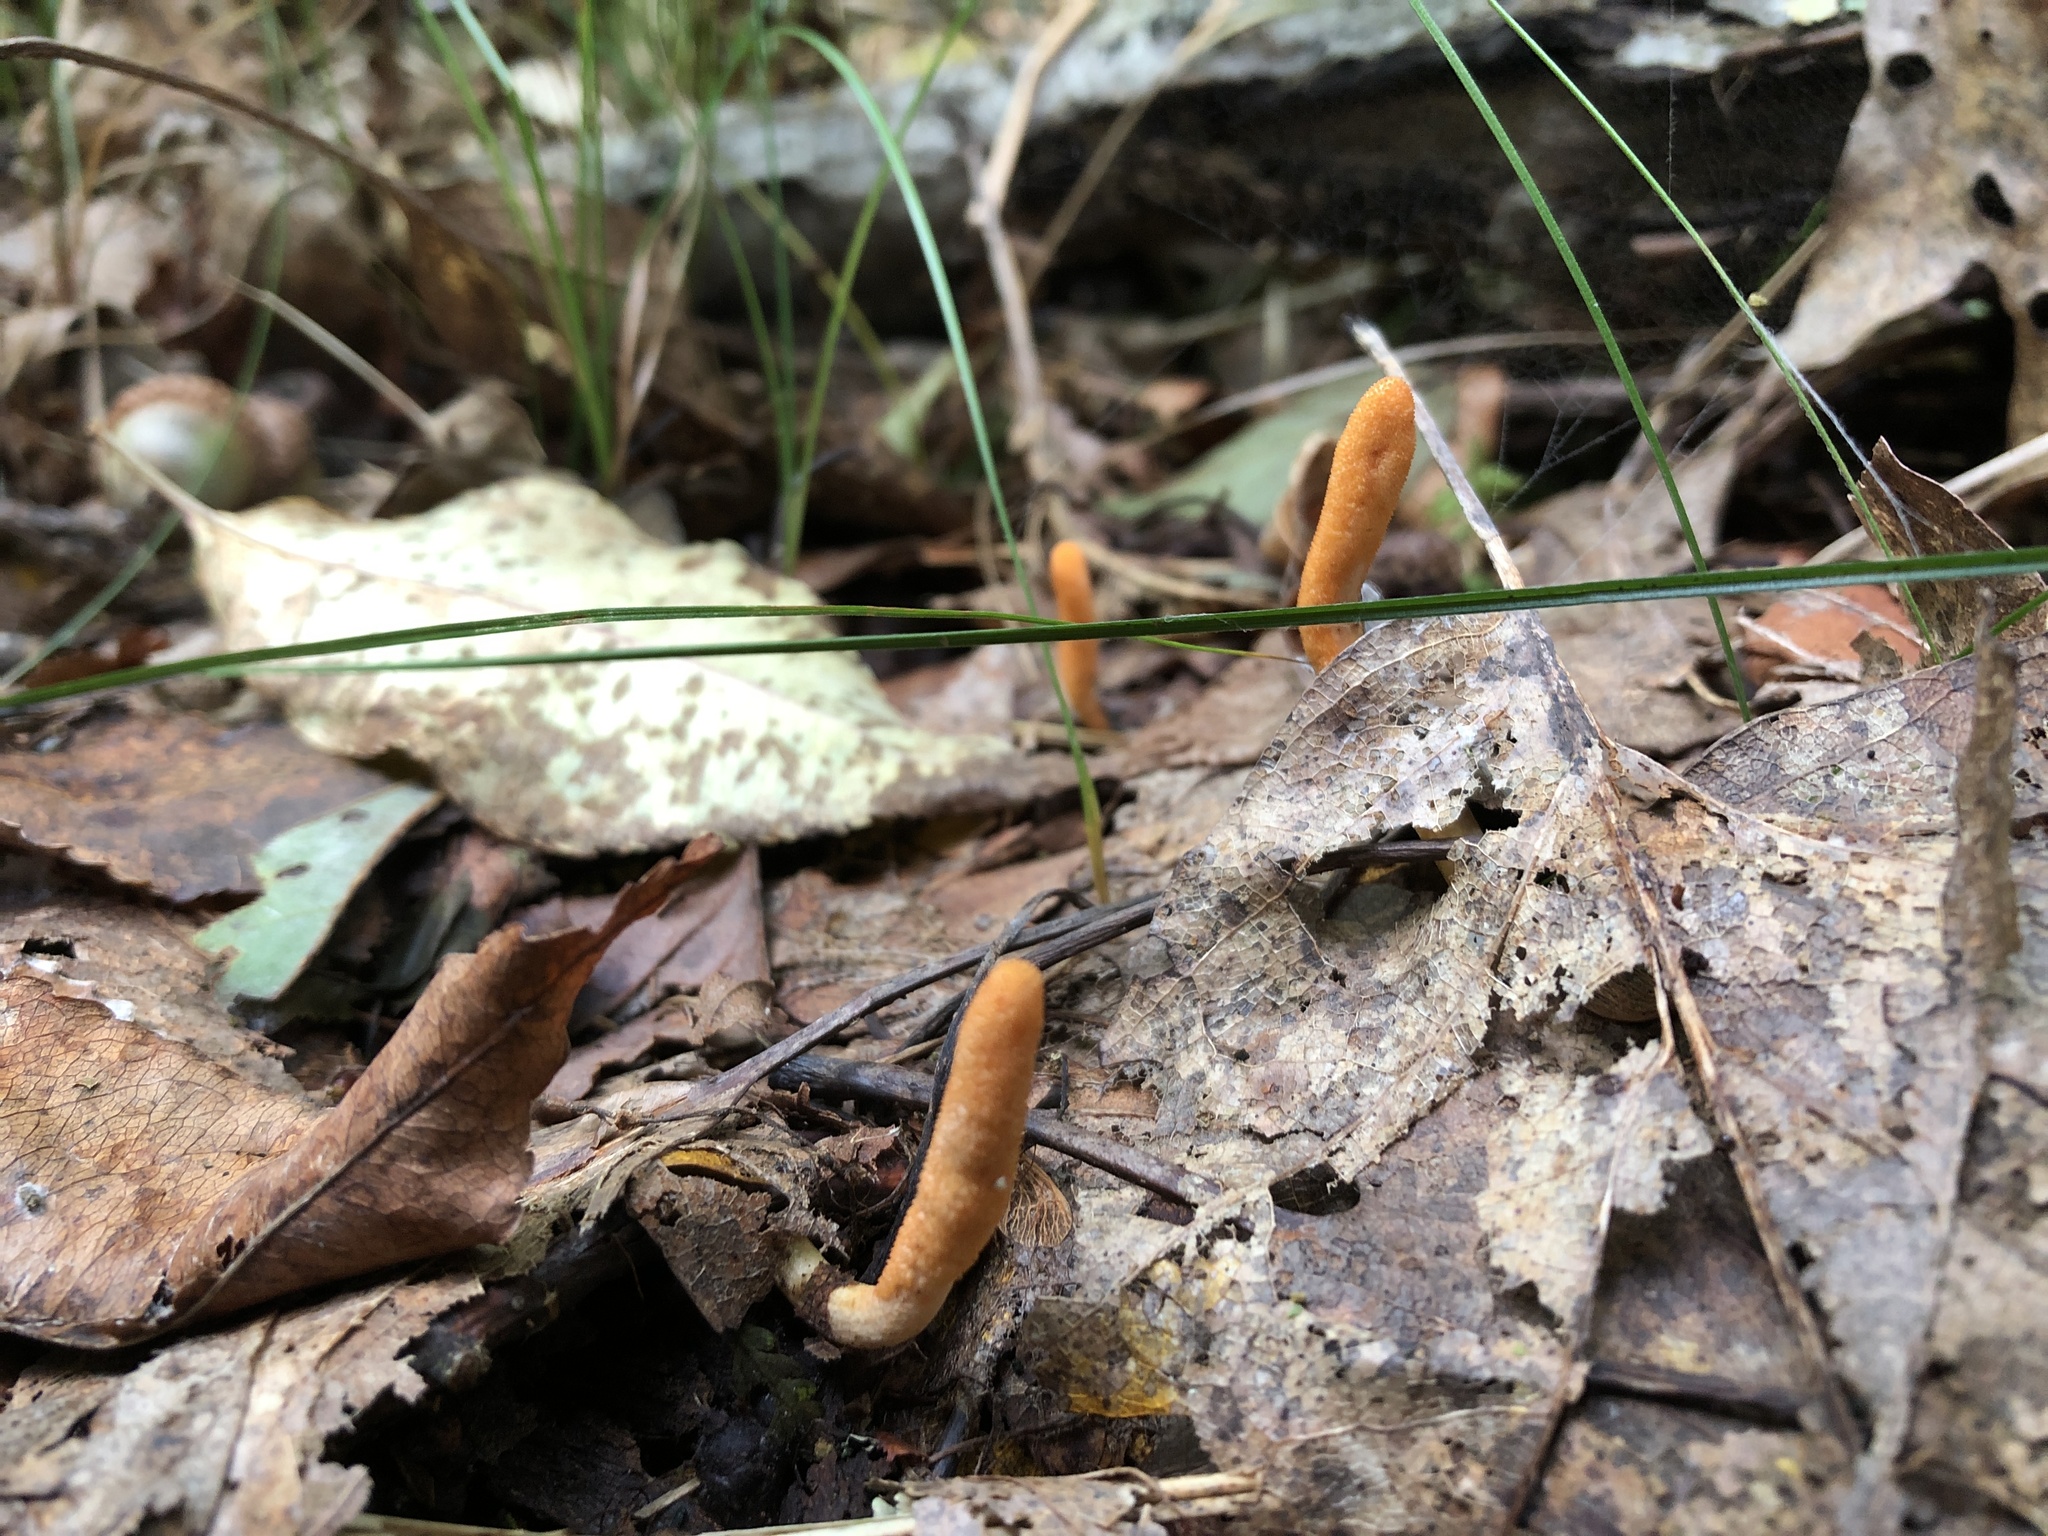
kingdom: Fungi
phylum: Ascomycota
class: Sordariomycetes
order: Hypocreales
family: Cordycipitaceae
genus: Cordyceps
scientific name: Cordyceps militaris
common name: Scarlet caterpillar fungus
